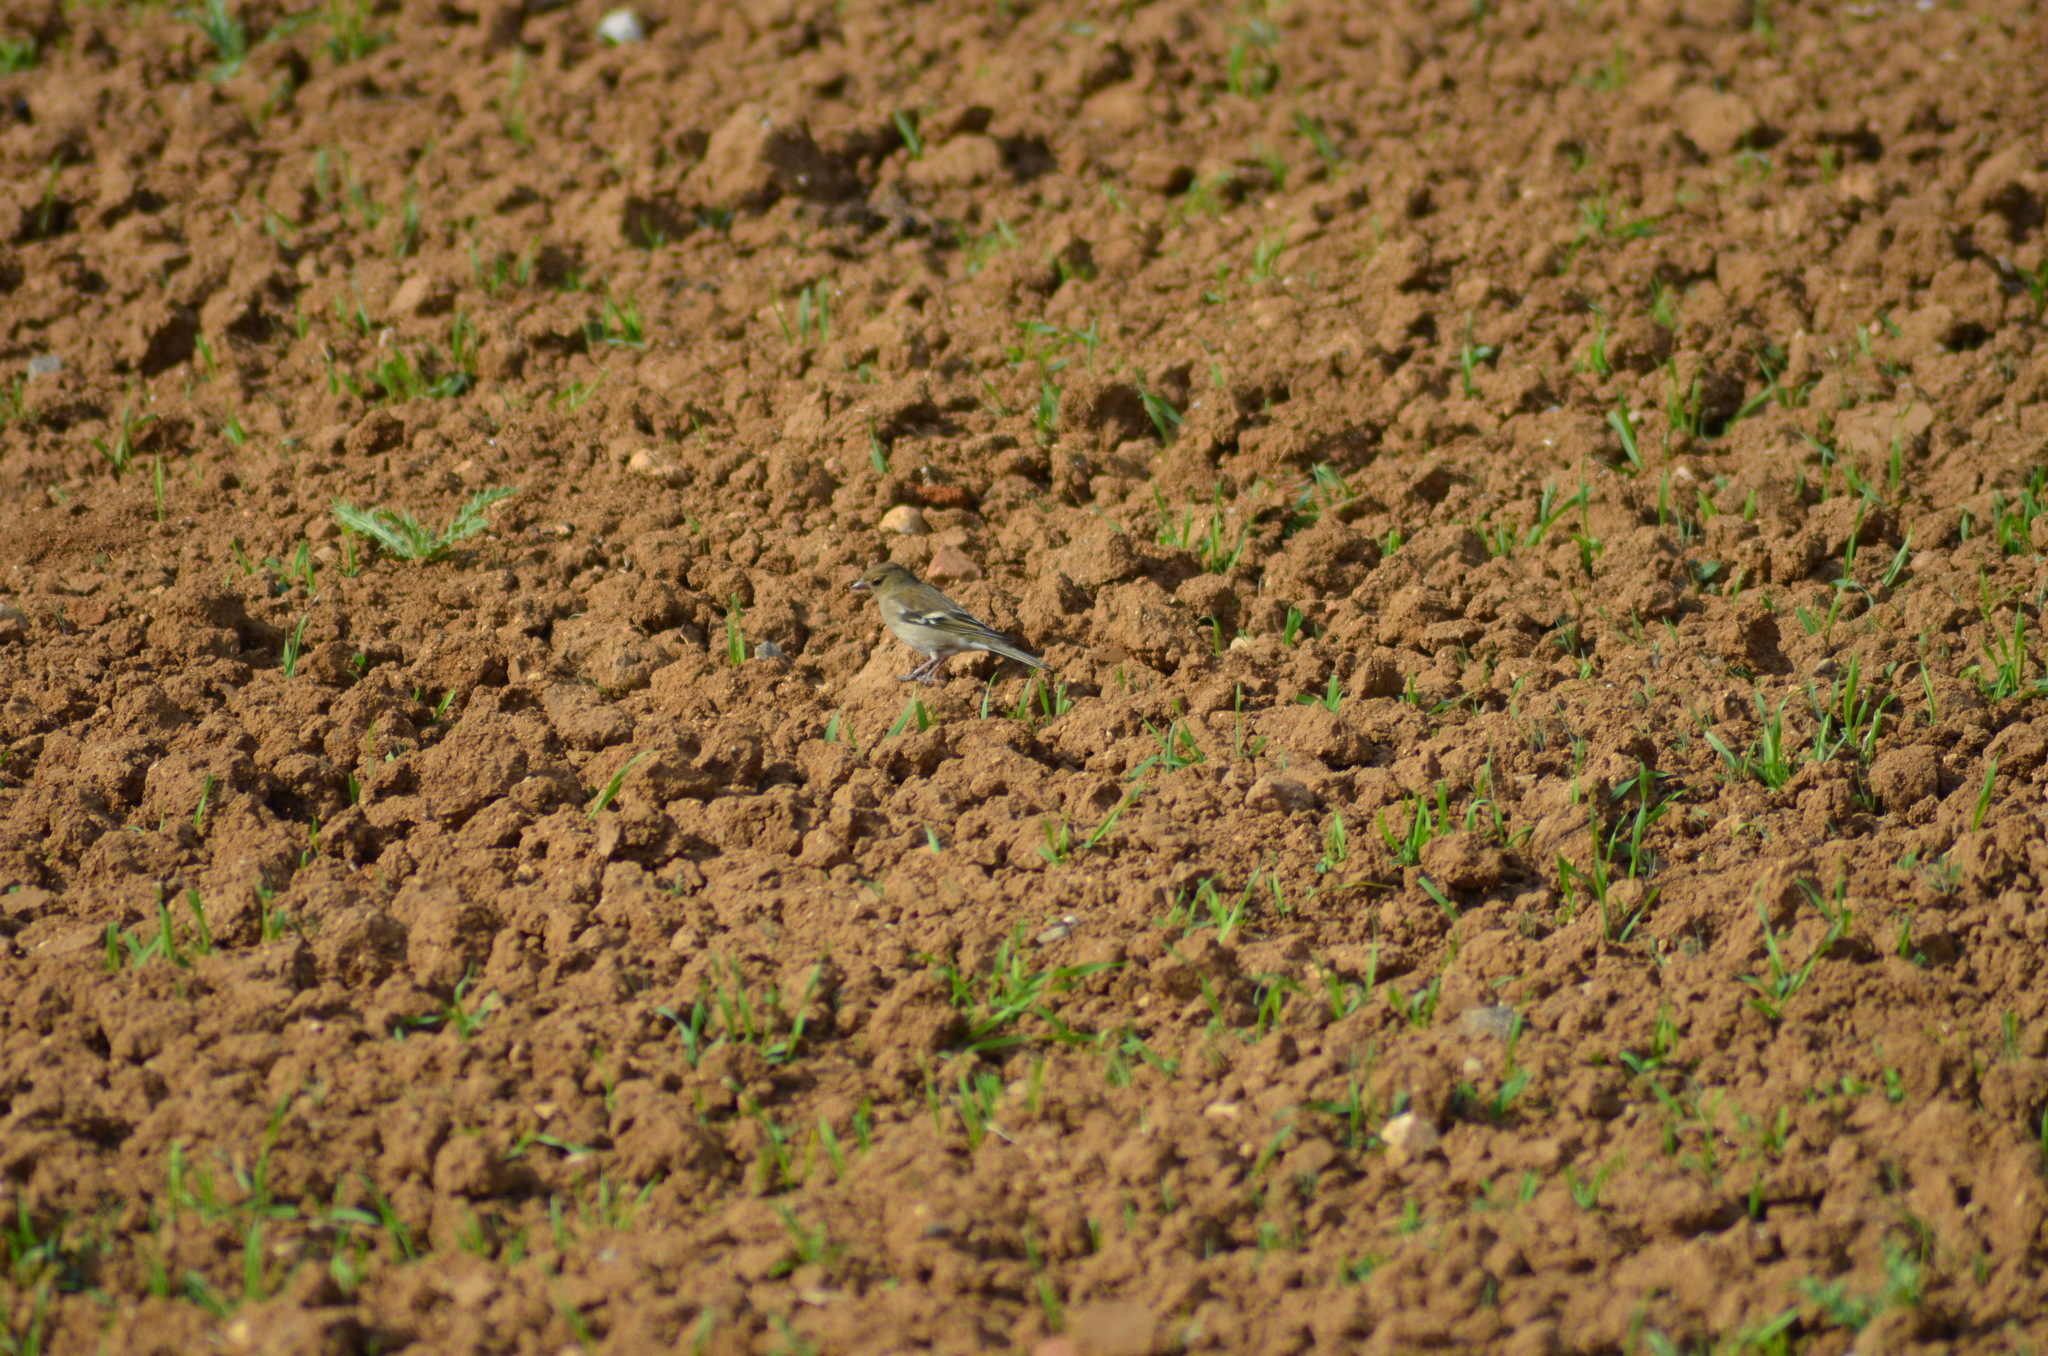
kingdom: Animalia
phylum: Chordata
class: Aves
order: Passeriformes
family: Fringillidae
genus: Fringilla
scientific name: Fringilla coelebs
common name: Common chaffinch
